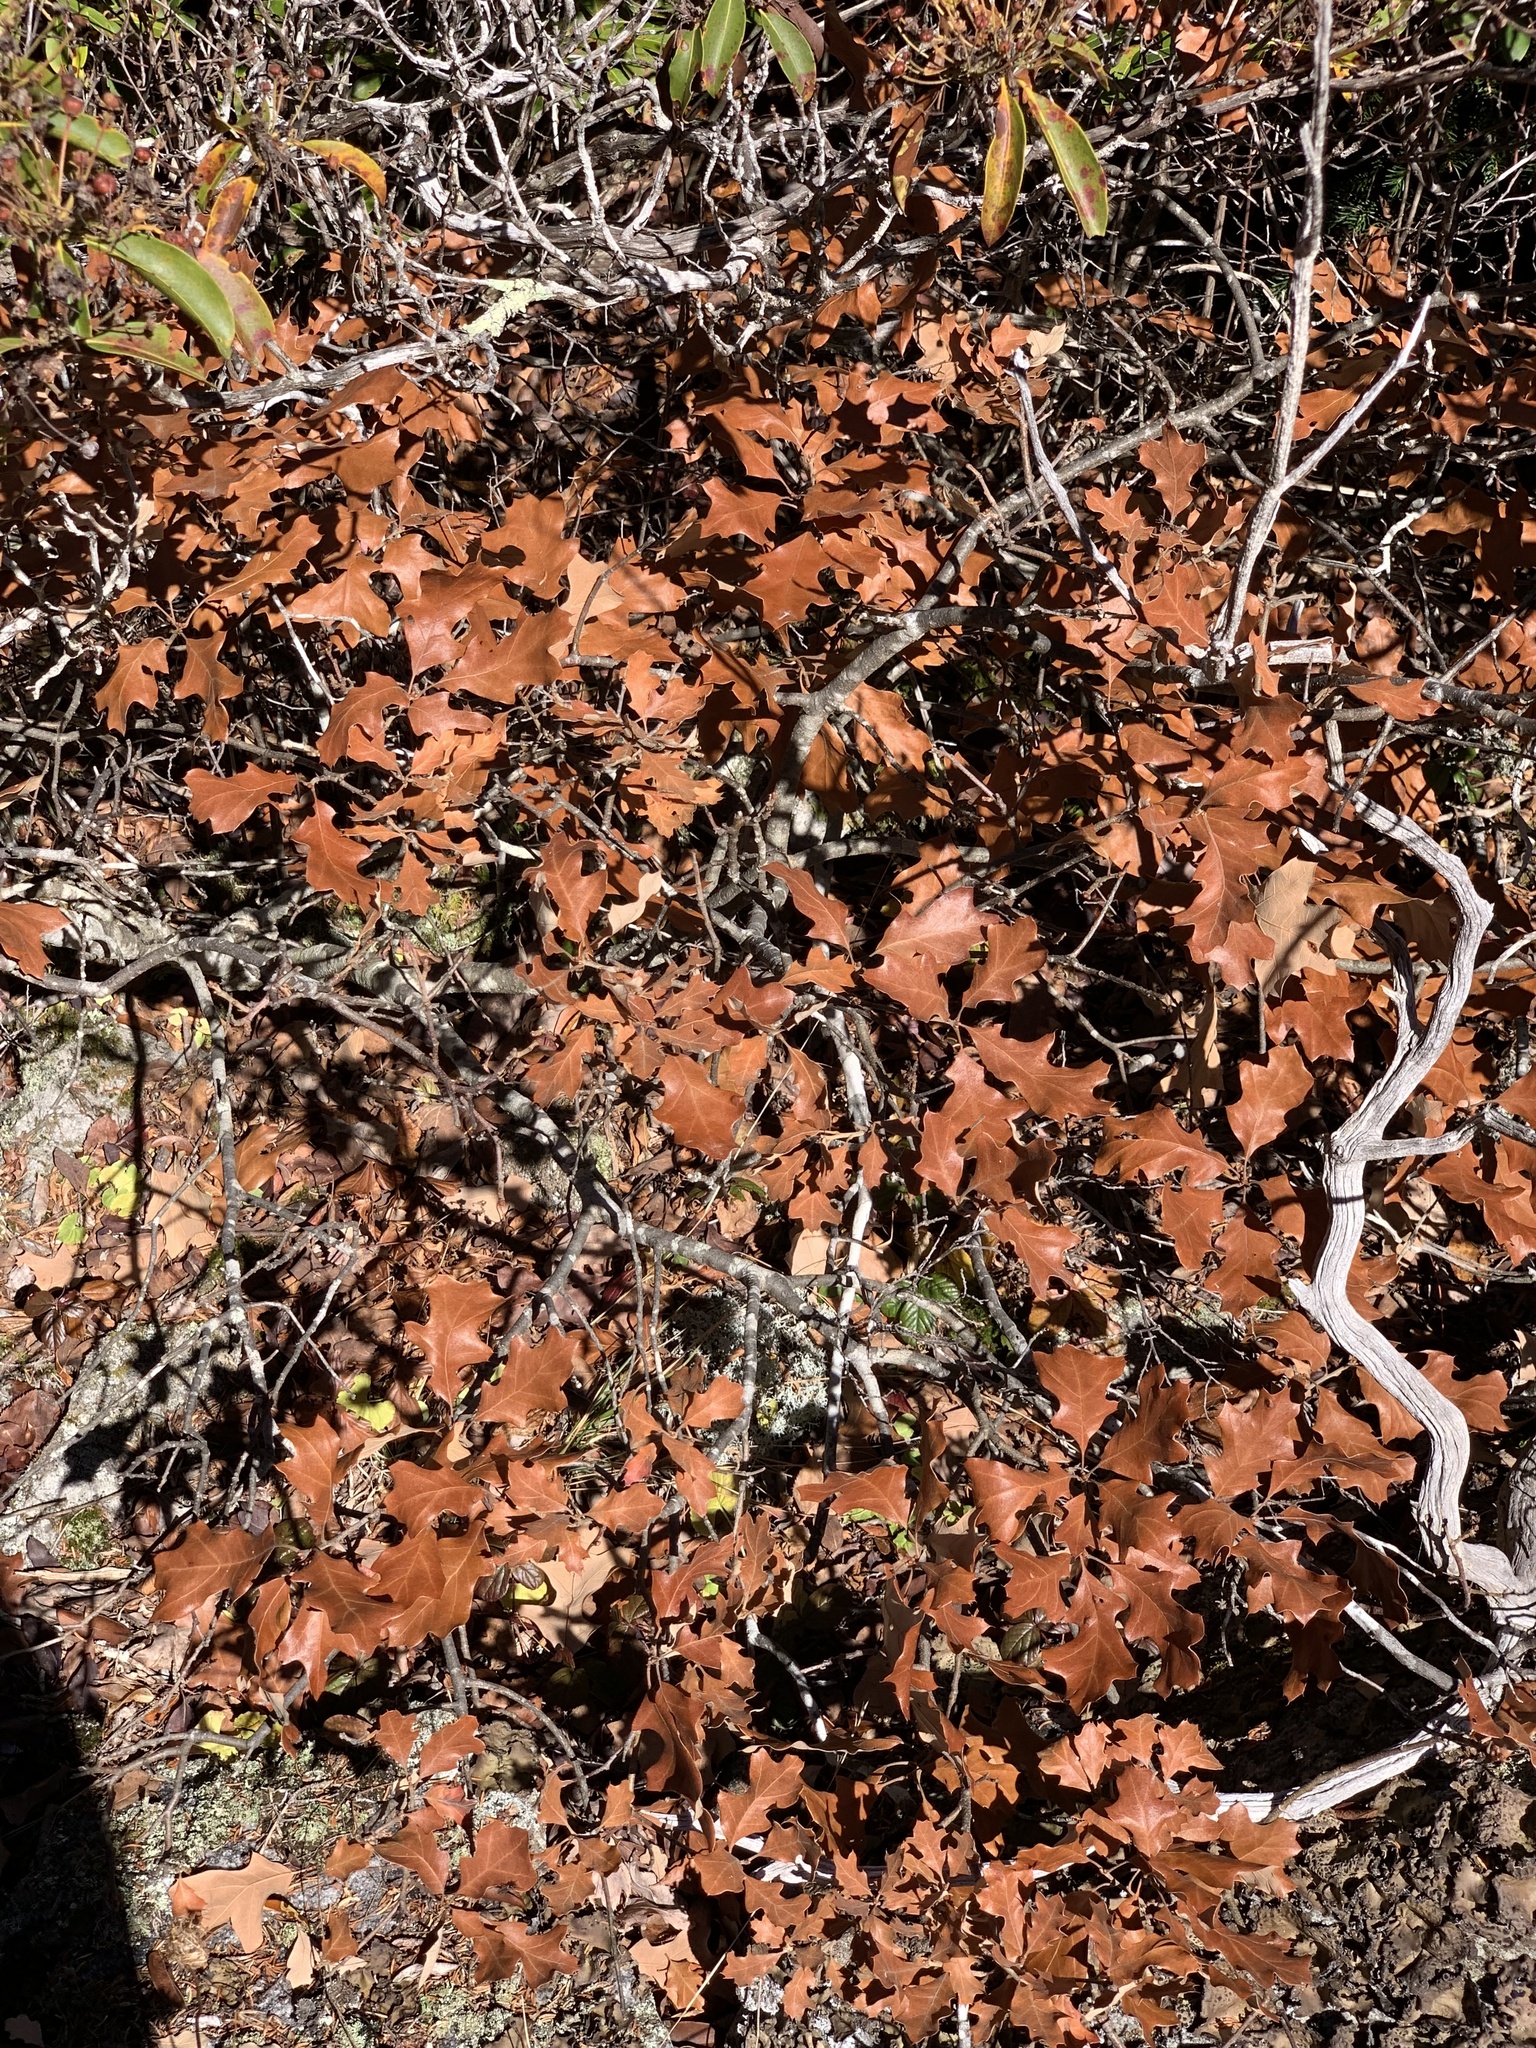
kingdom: Plantae
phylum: Tracheophyta
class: Magnoliopsida
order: Fagales
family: Fagaceae
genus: Quercus
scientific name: Quercus ilicifolia
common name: Bear oak
